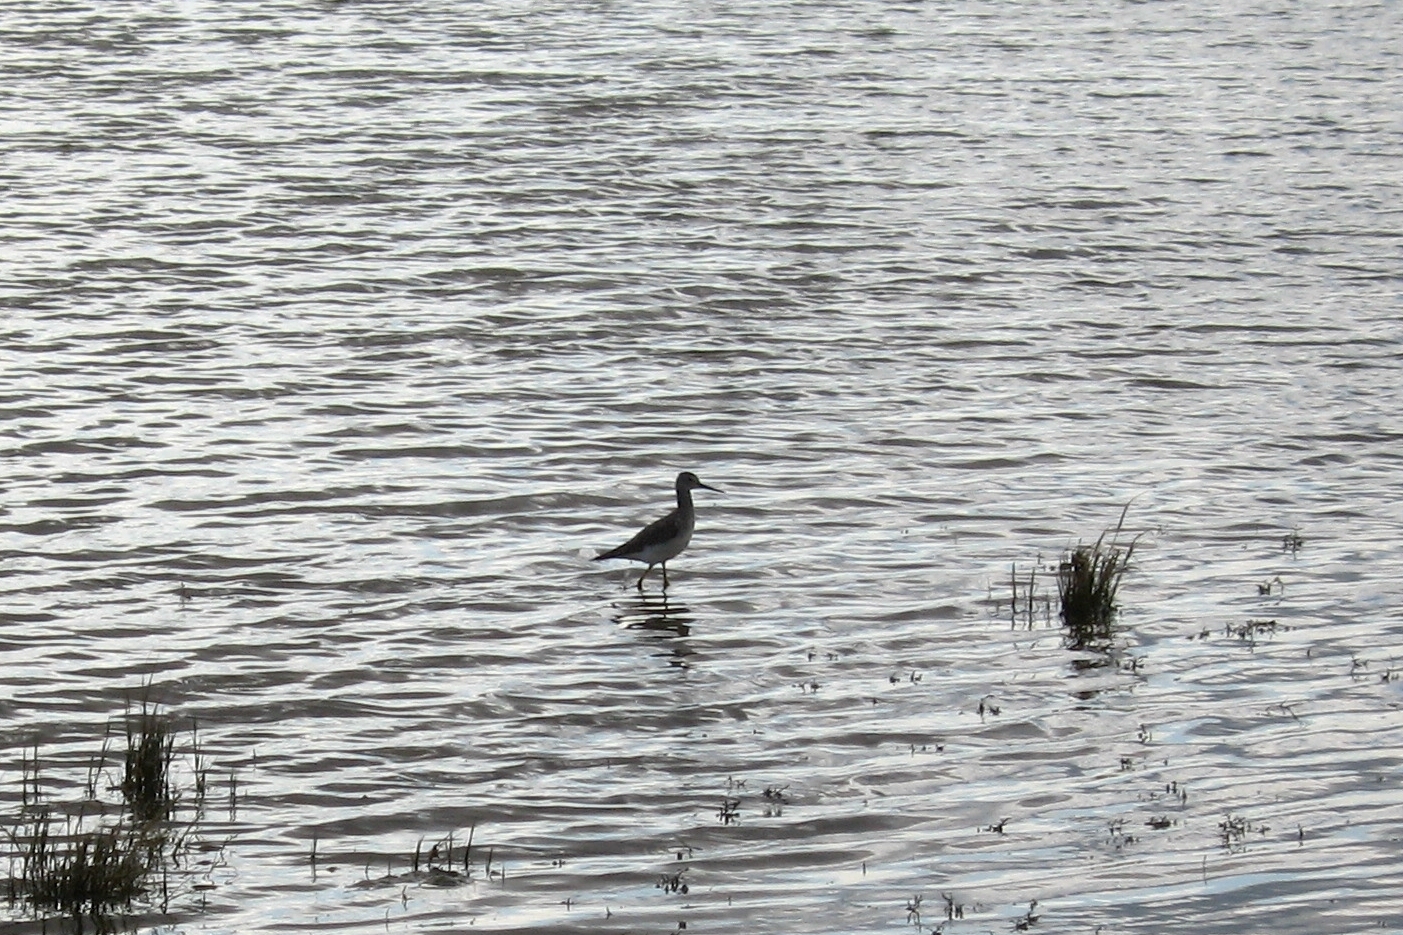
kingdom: Animalia
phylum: Chordata
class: Aves
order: Charadriiformes
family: Scolopacidae
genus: Tringa
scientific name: Tringa melanoleuca
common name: Greater yellowlegs
